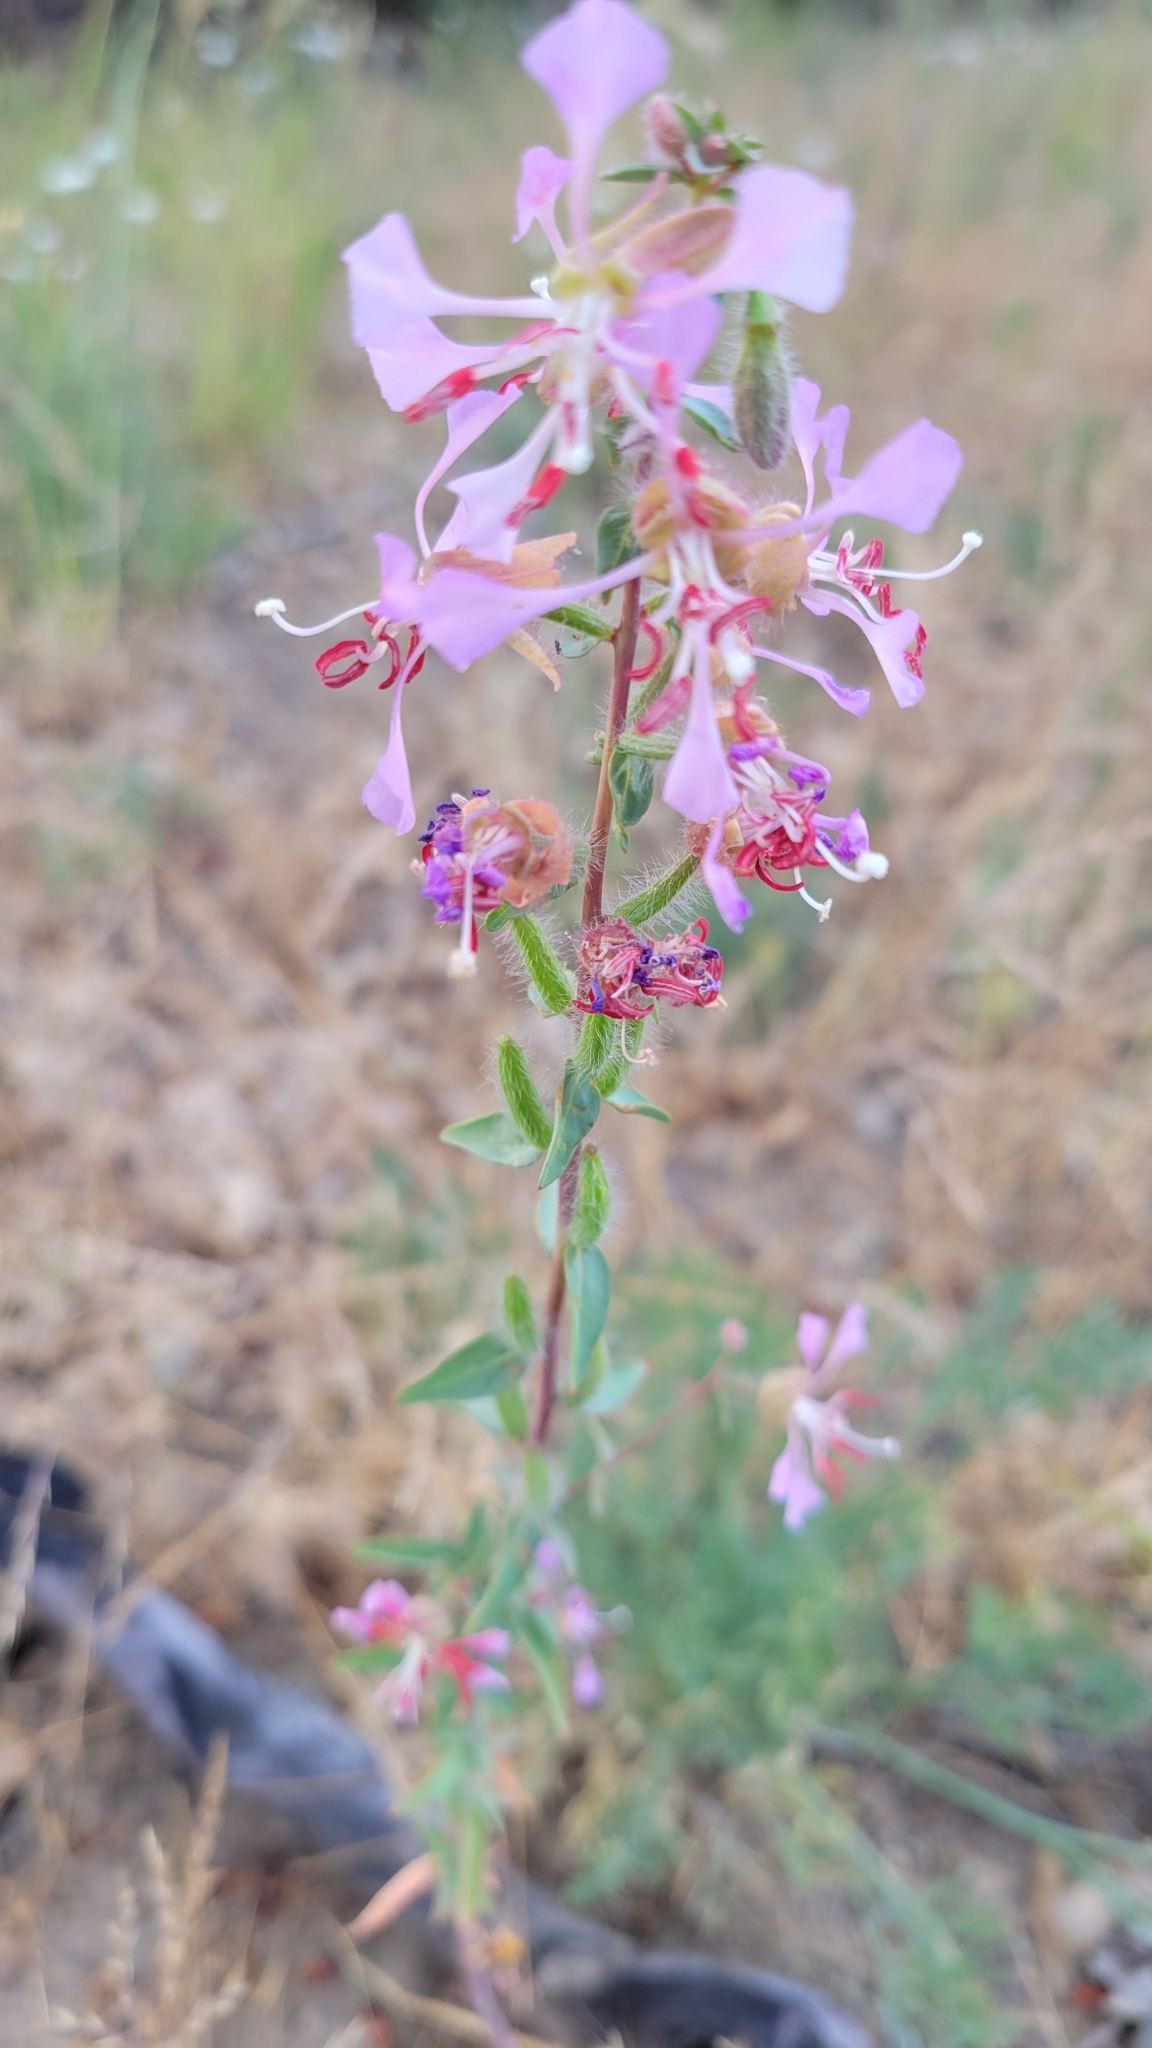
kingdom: Plantae
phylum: Tracheophyta
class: Magnoliopsida
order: Myrtales
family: Onagraceae
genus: Clarkia
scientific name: Clarkia unguiculata
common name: Clarkia
